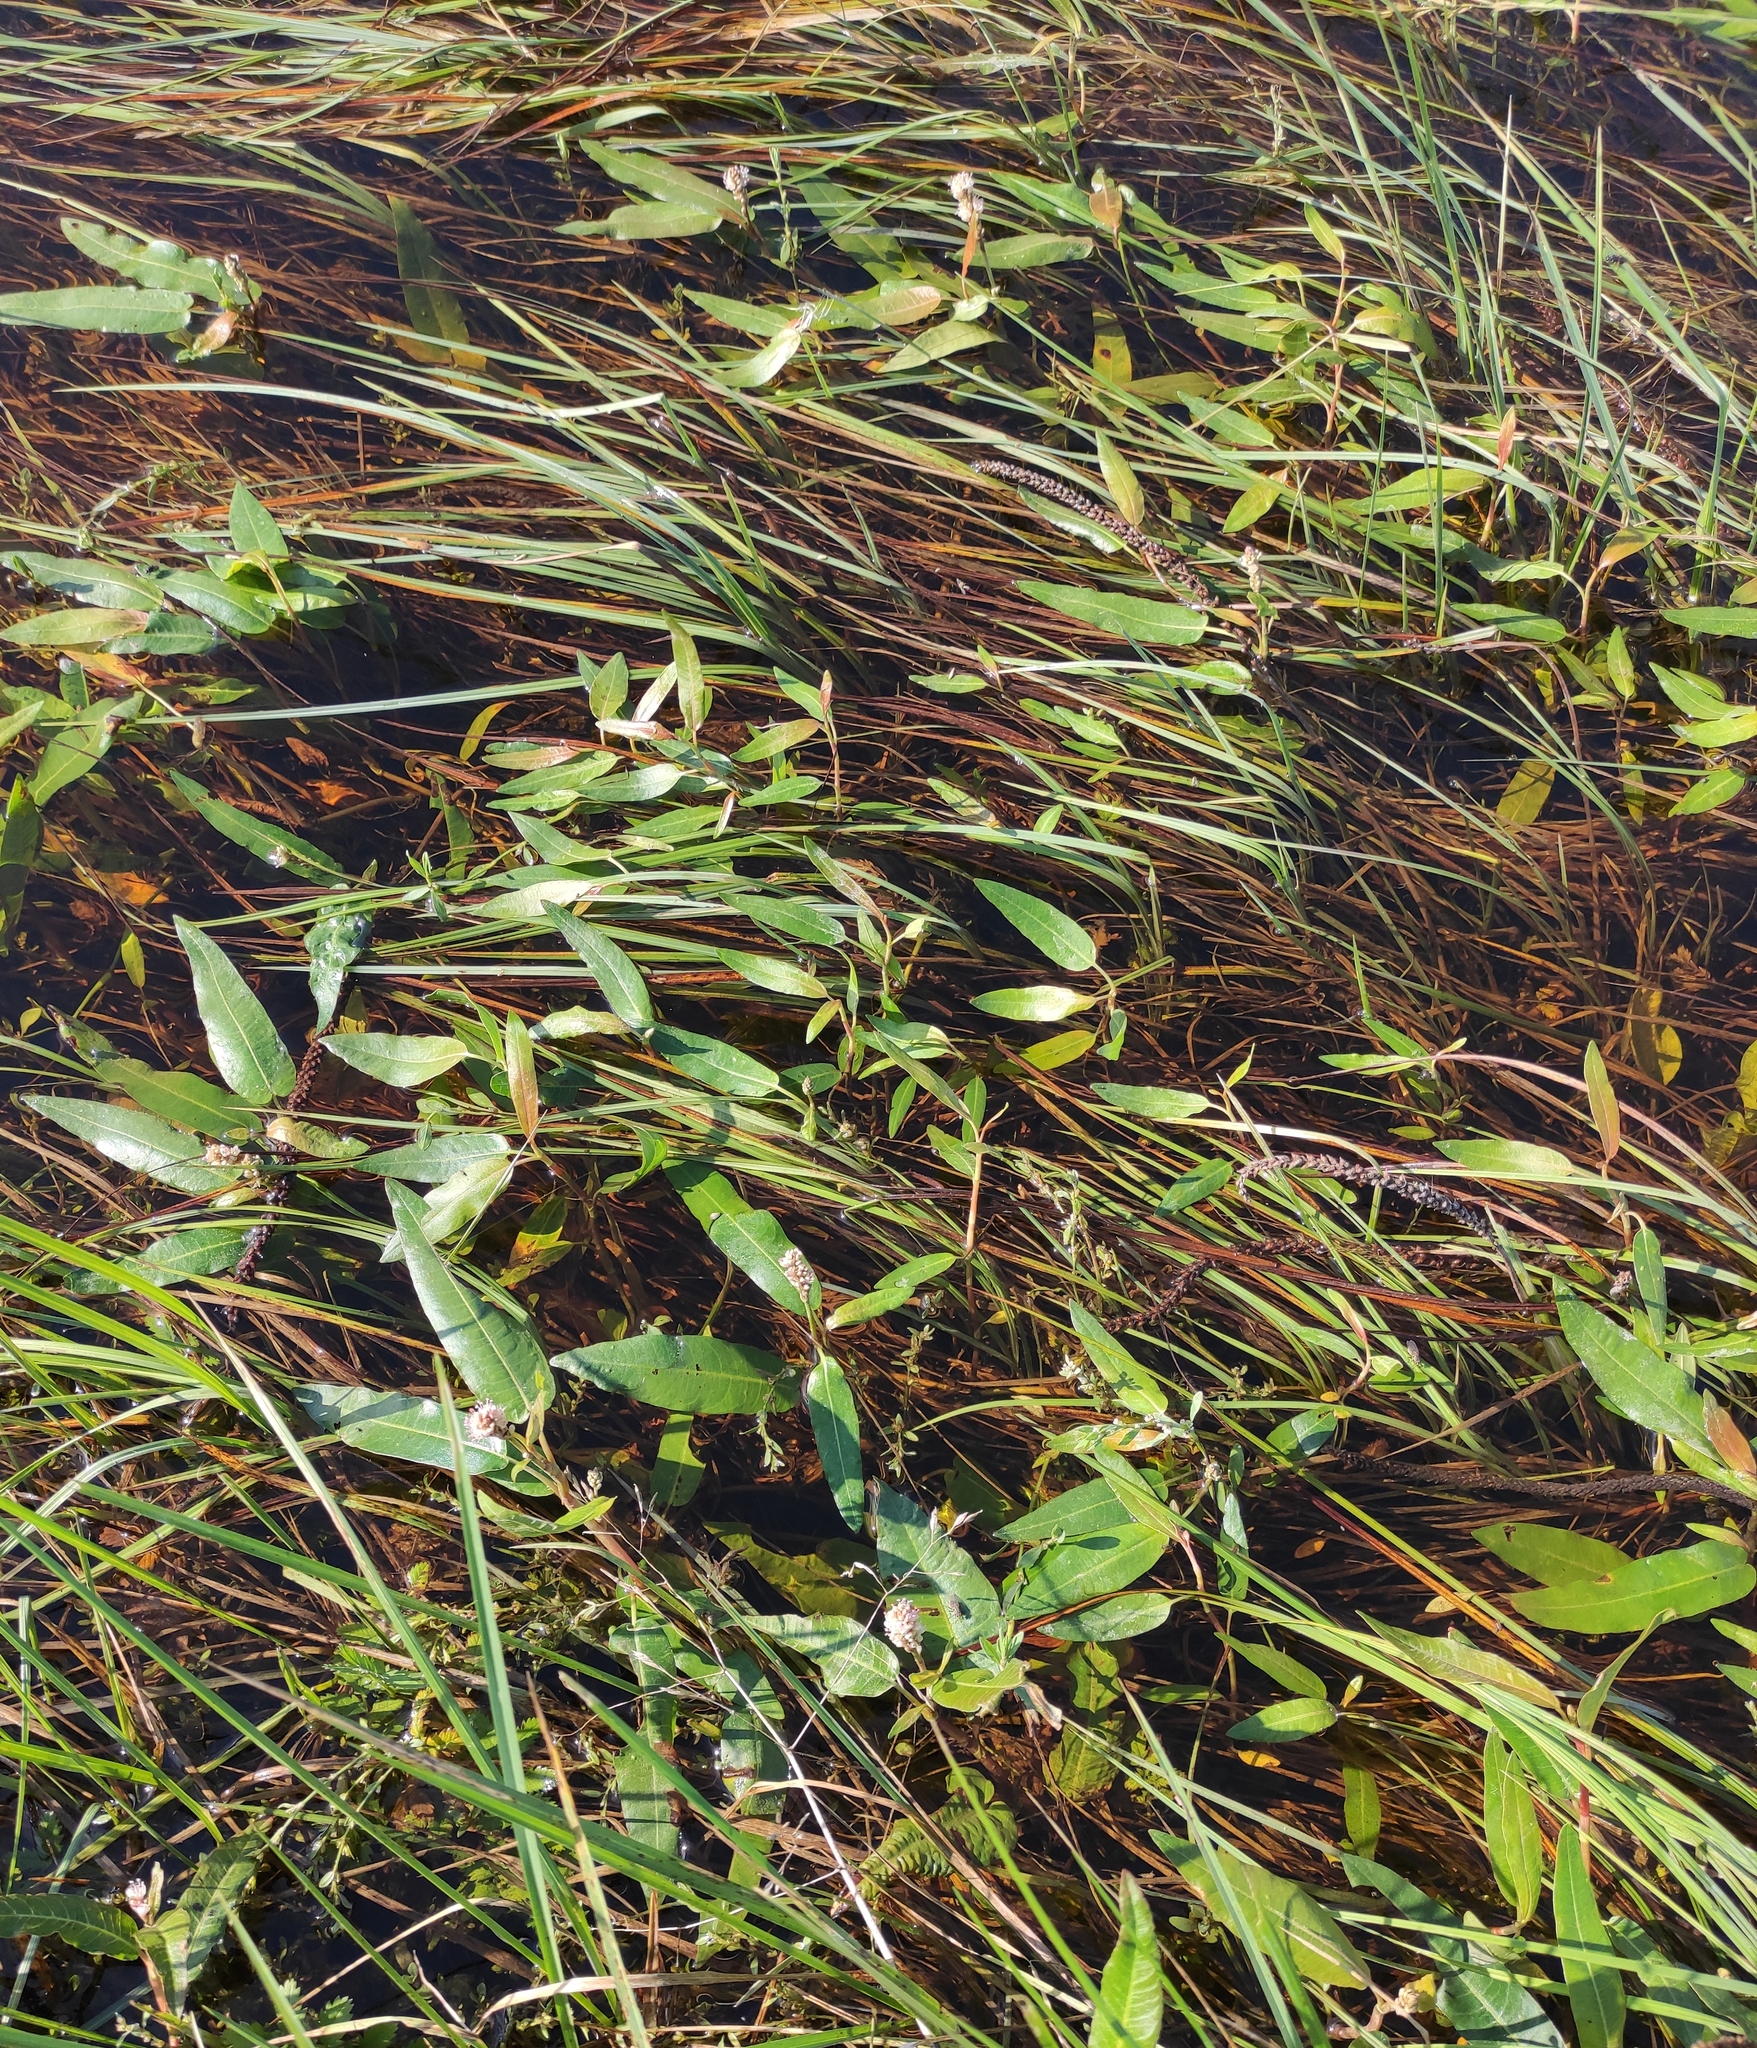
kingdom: Plantae
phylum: Tracheophyta
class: Magnoliopsida
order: Caryophyllales
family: Polygonaceae
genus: Persicaria
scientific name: Persicaria amphibia
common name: Amphibious bistort
